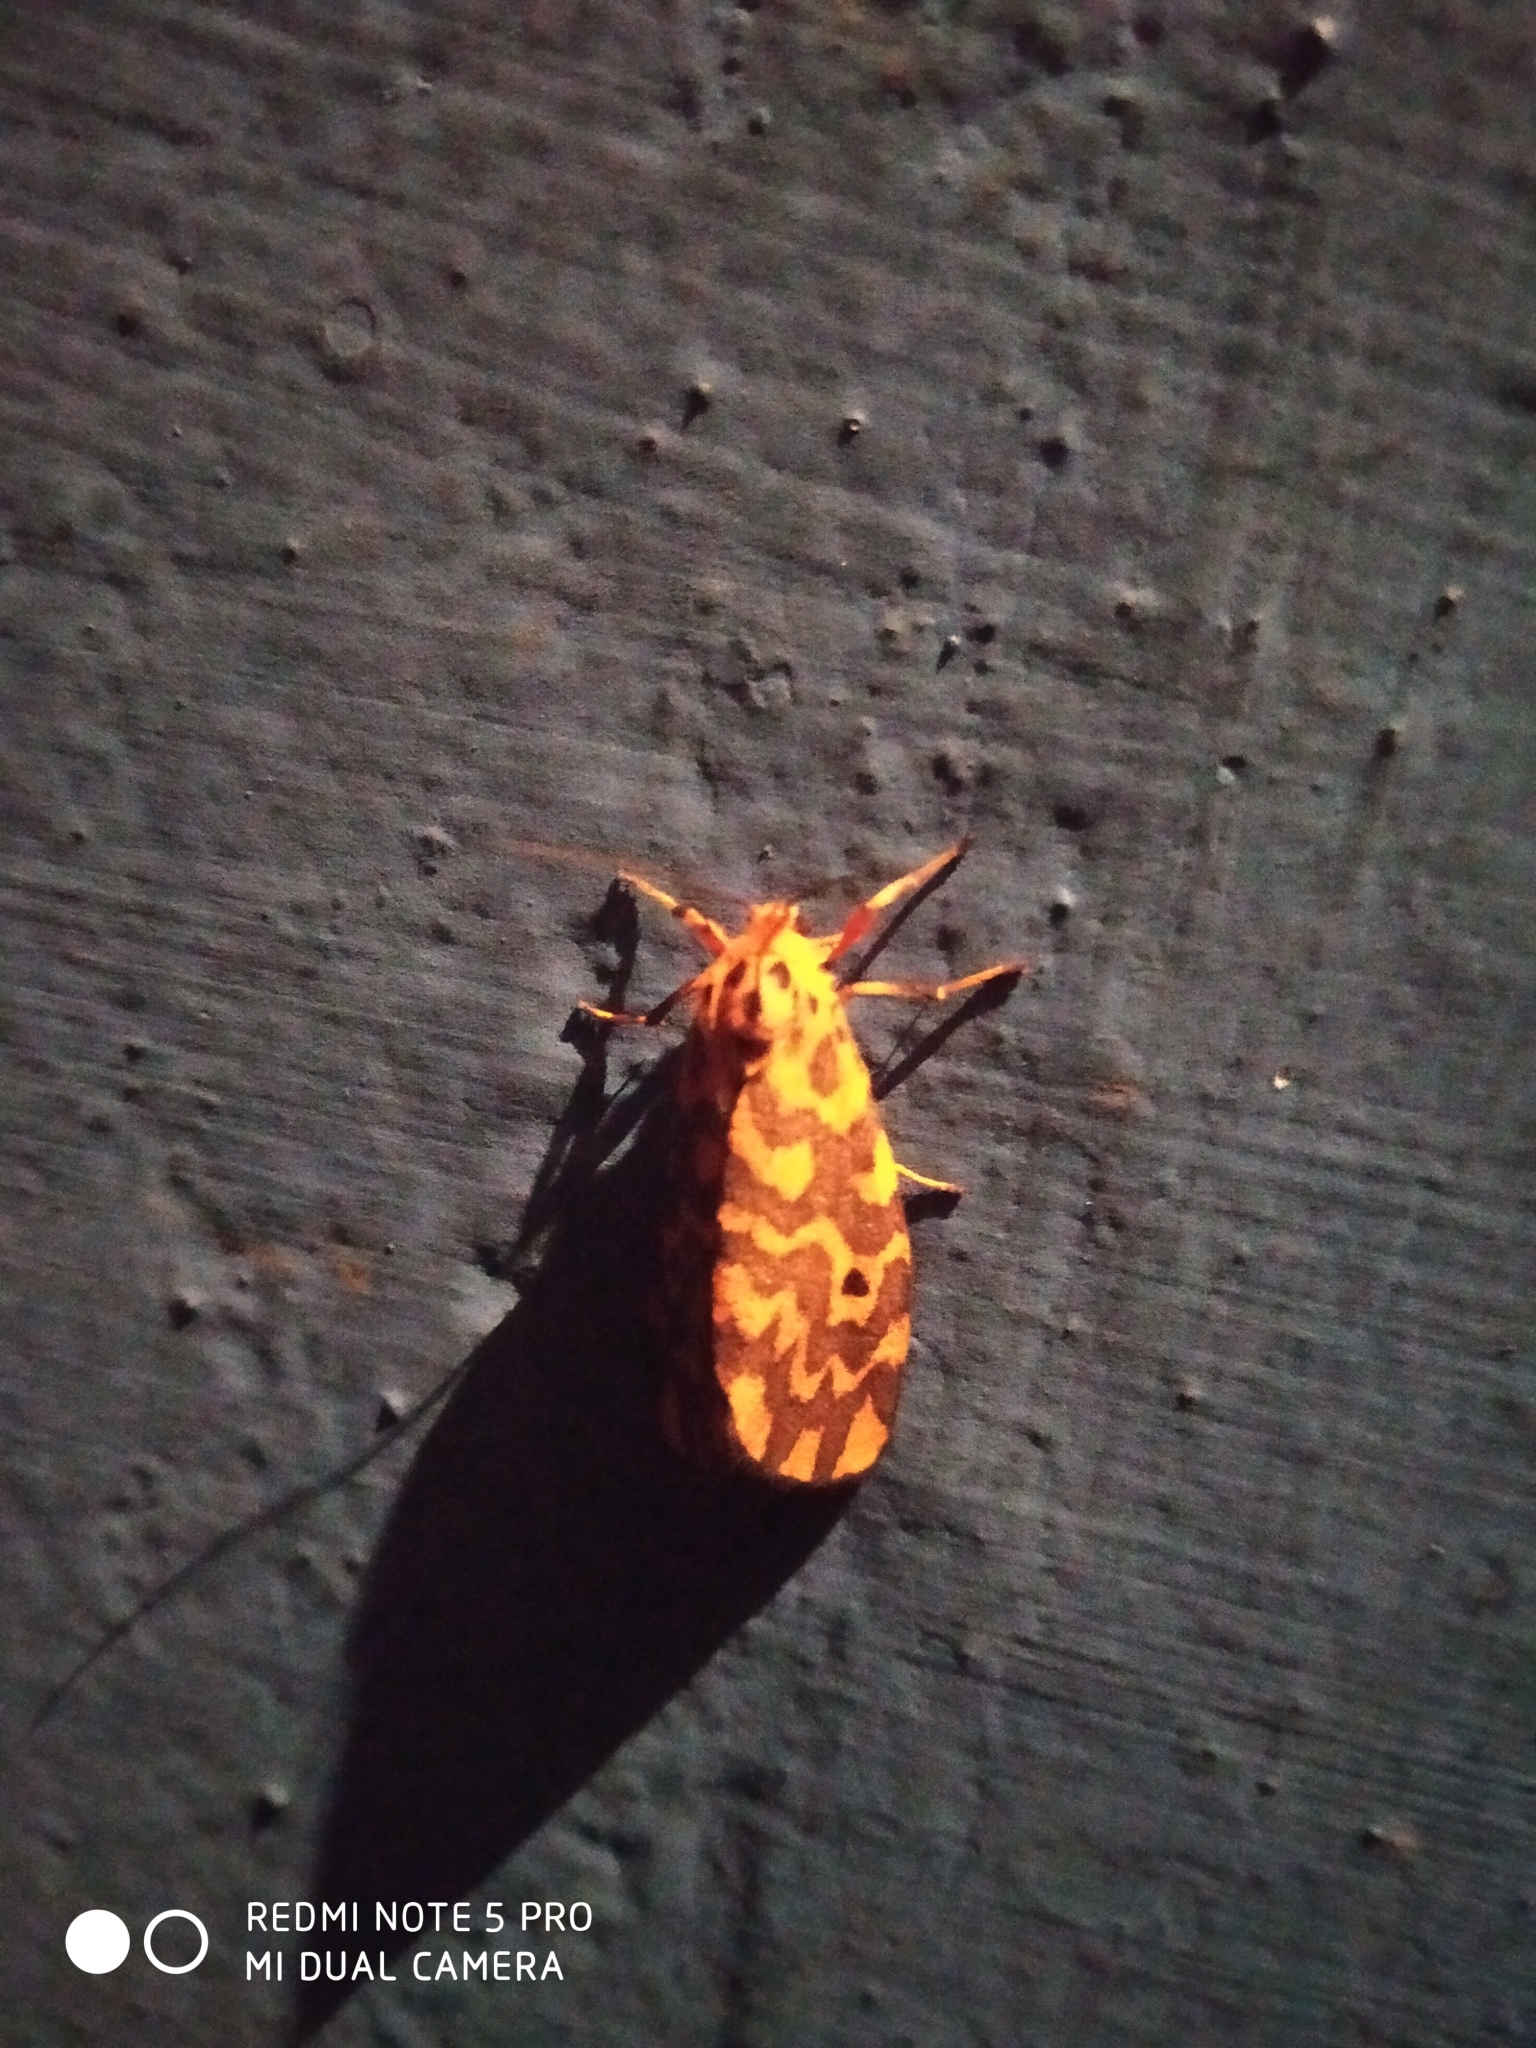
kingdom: Animalia
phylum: Arthropoda
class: Insecta
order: Lepidoptera
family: Erebidae
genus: Nepita
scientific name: Nepita conferta
